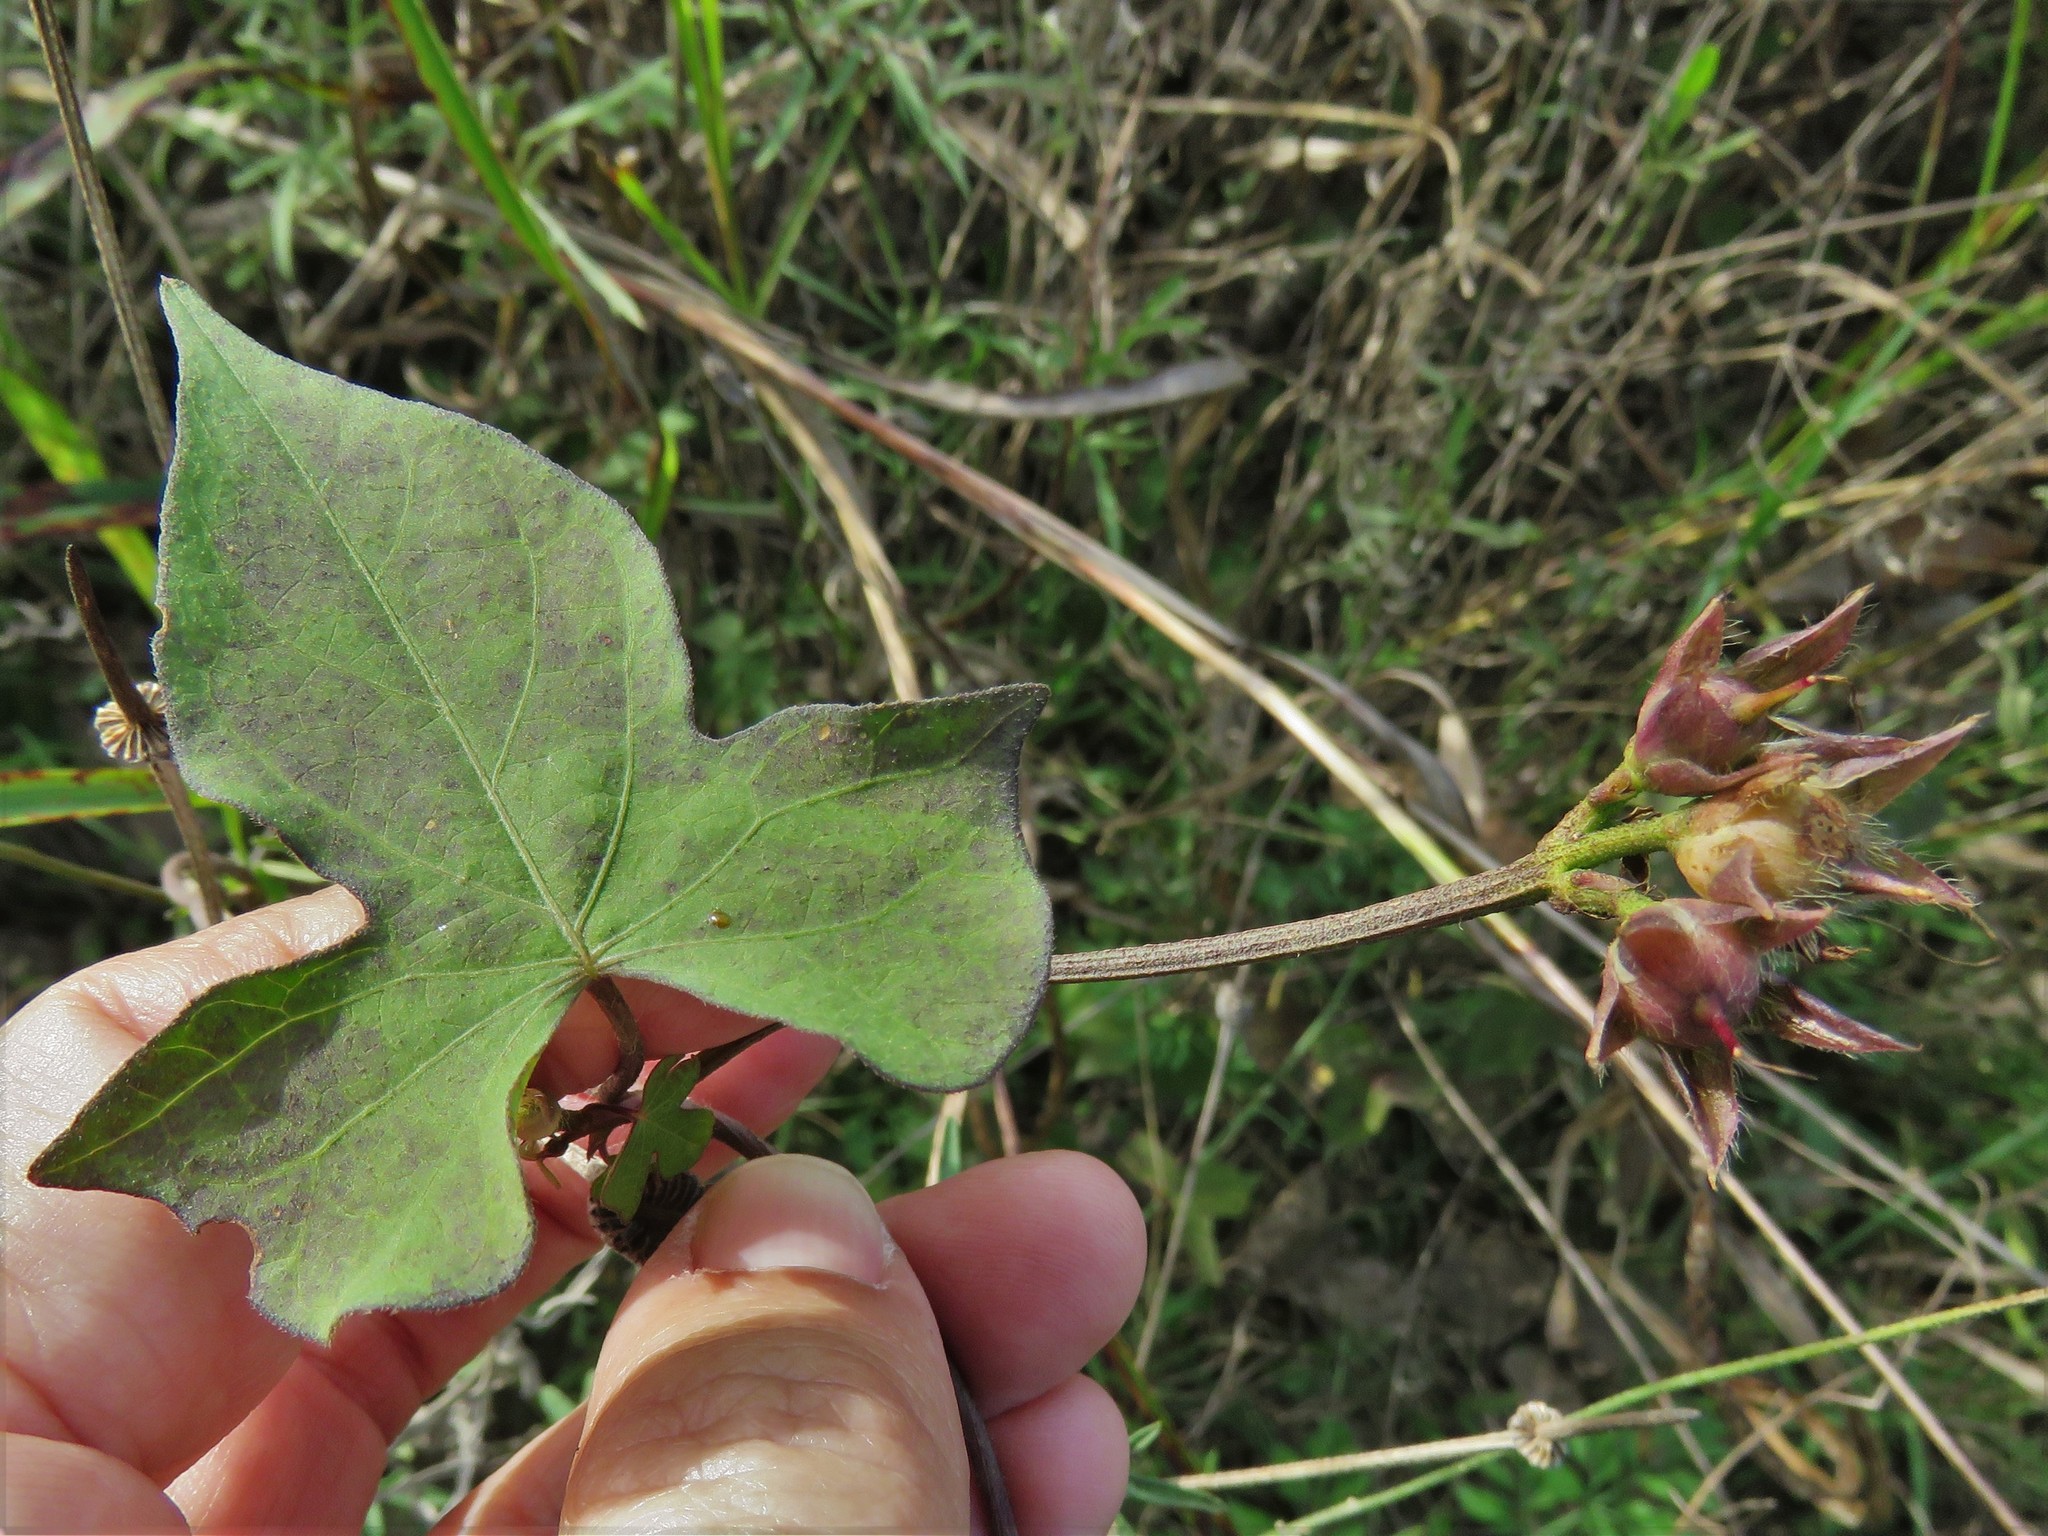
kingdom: Plantae
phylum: Tracheophyta
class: Magnoliopsida
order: Solanales
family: Convolvulaceae
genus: Ipomoea
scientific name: Ipomoea cordatotriloba
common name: Cotton morning glory
